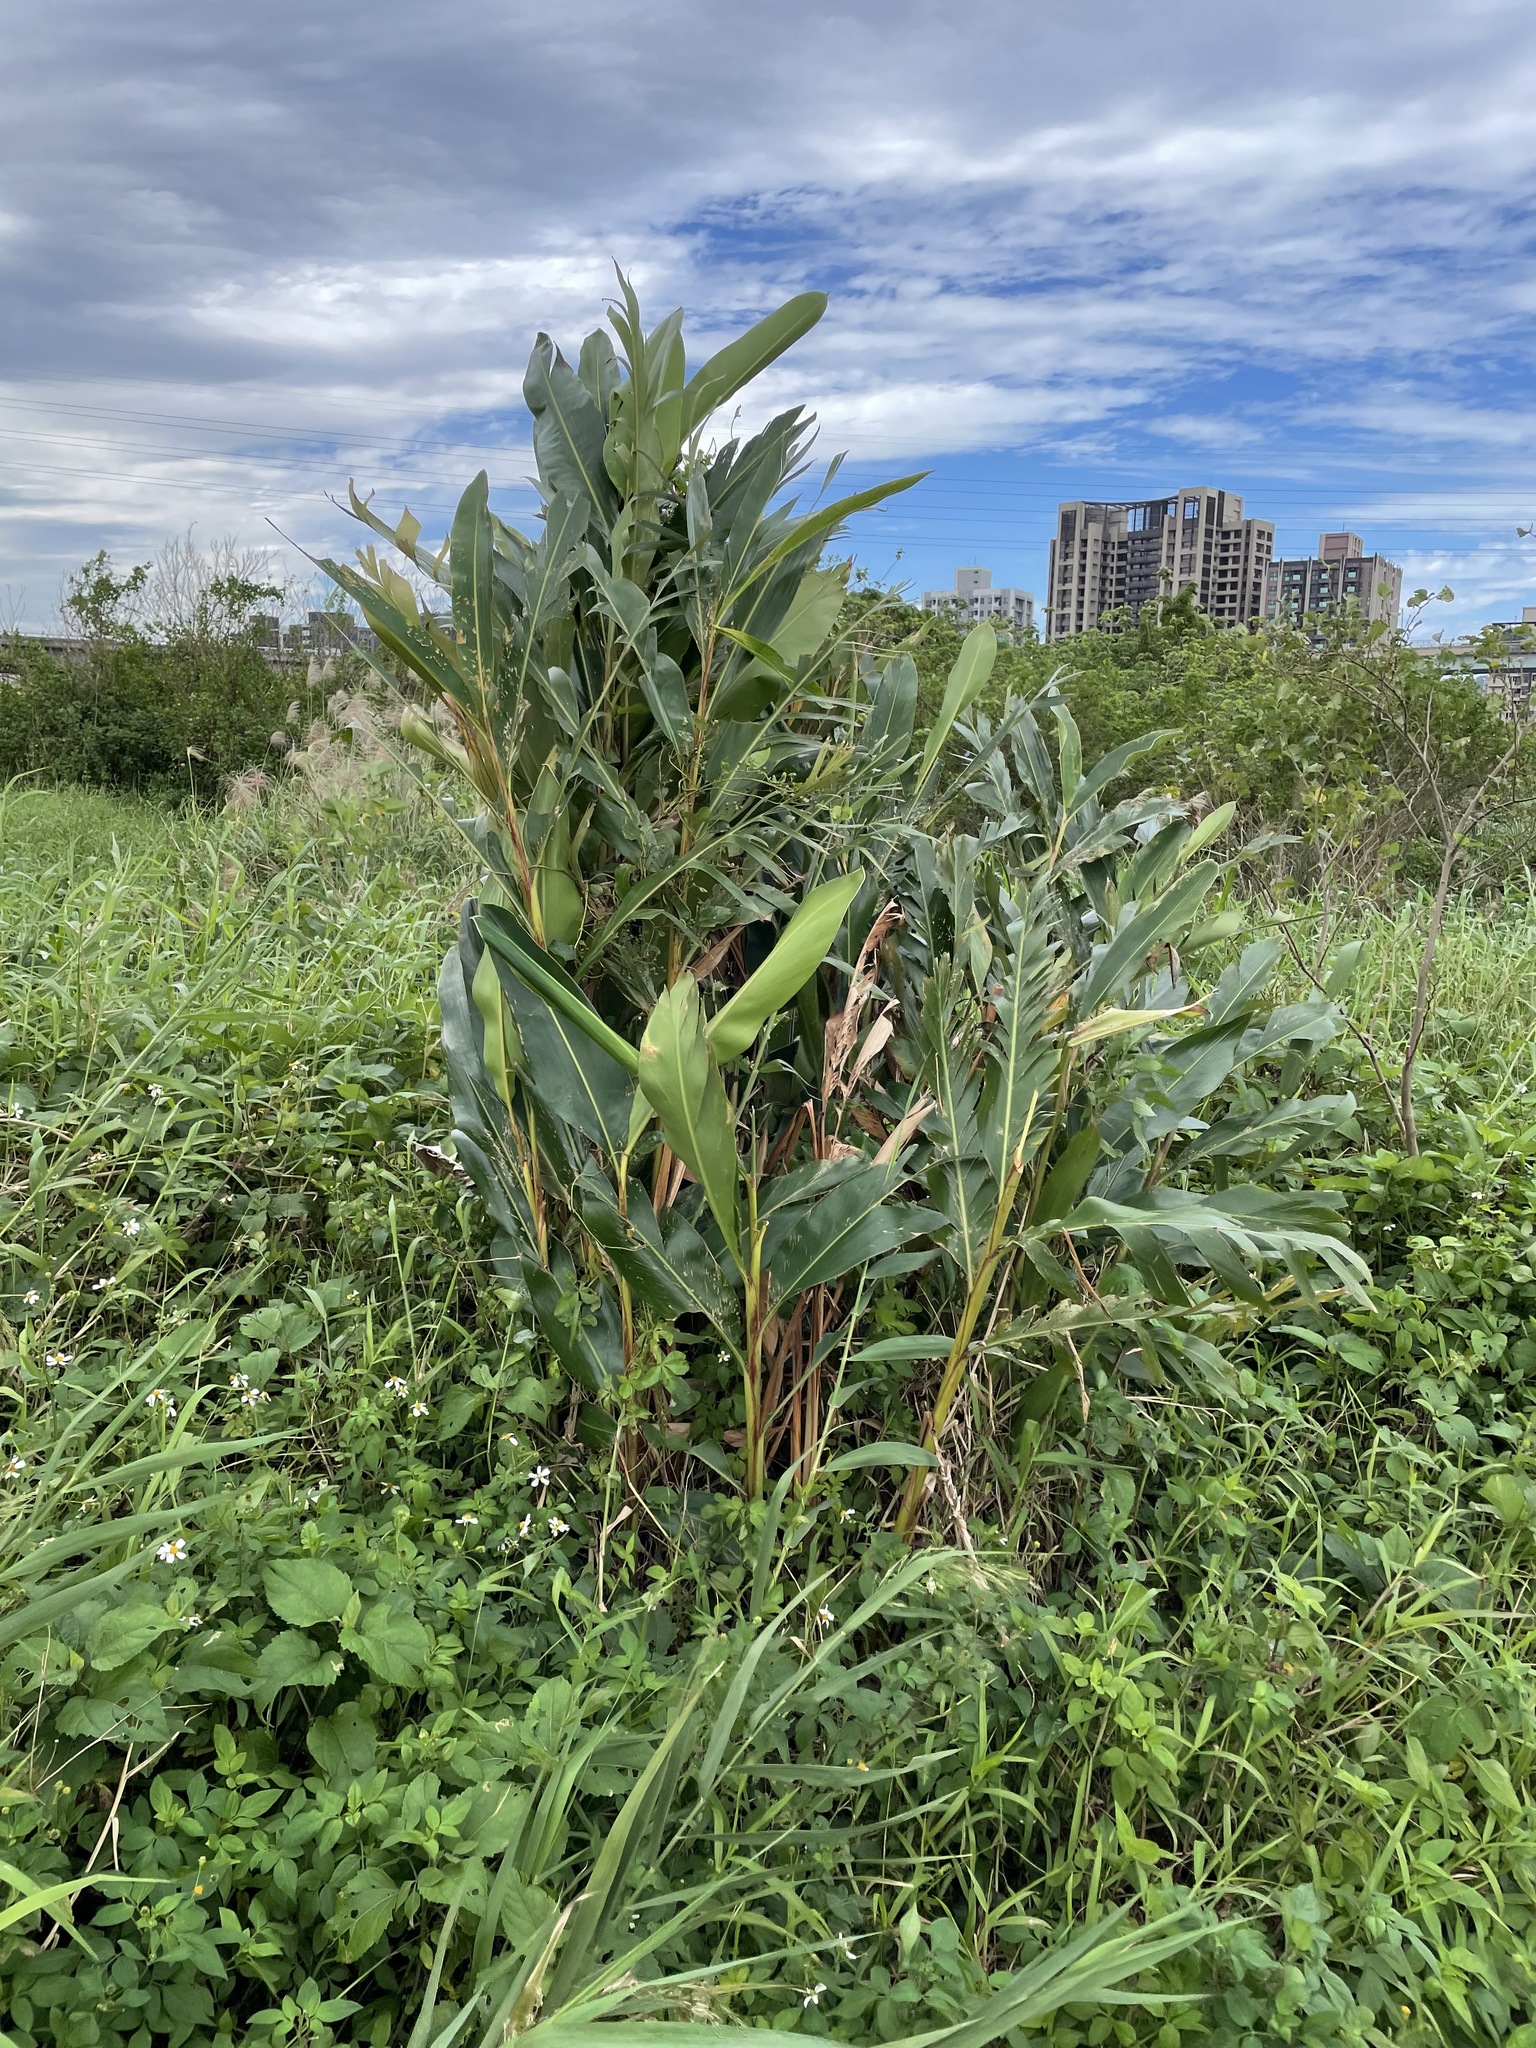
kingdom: Plantae
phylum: Tracheophyta
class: Liliopsida
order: Zingiberales
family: Zingiberaceae
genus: Alpinia
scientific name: Alpinia zerumbet
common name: Shellplant
